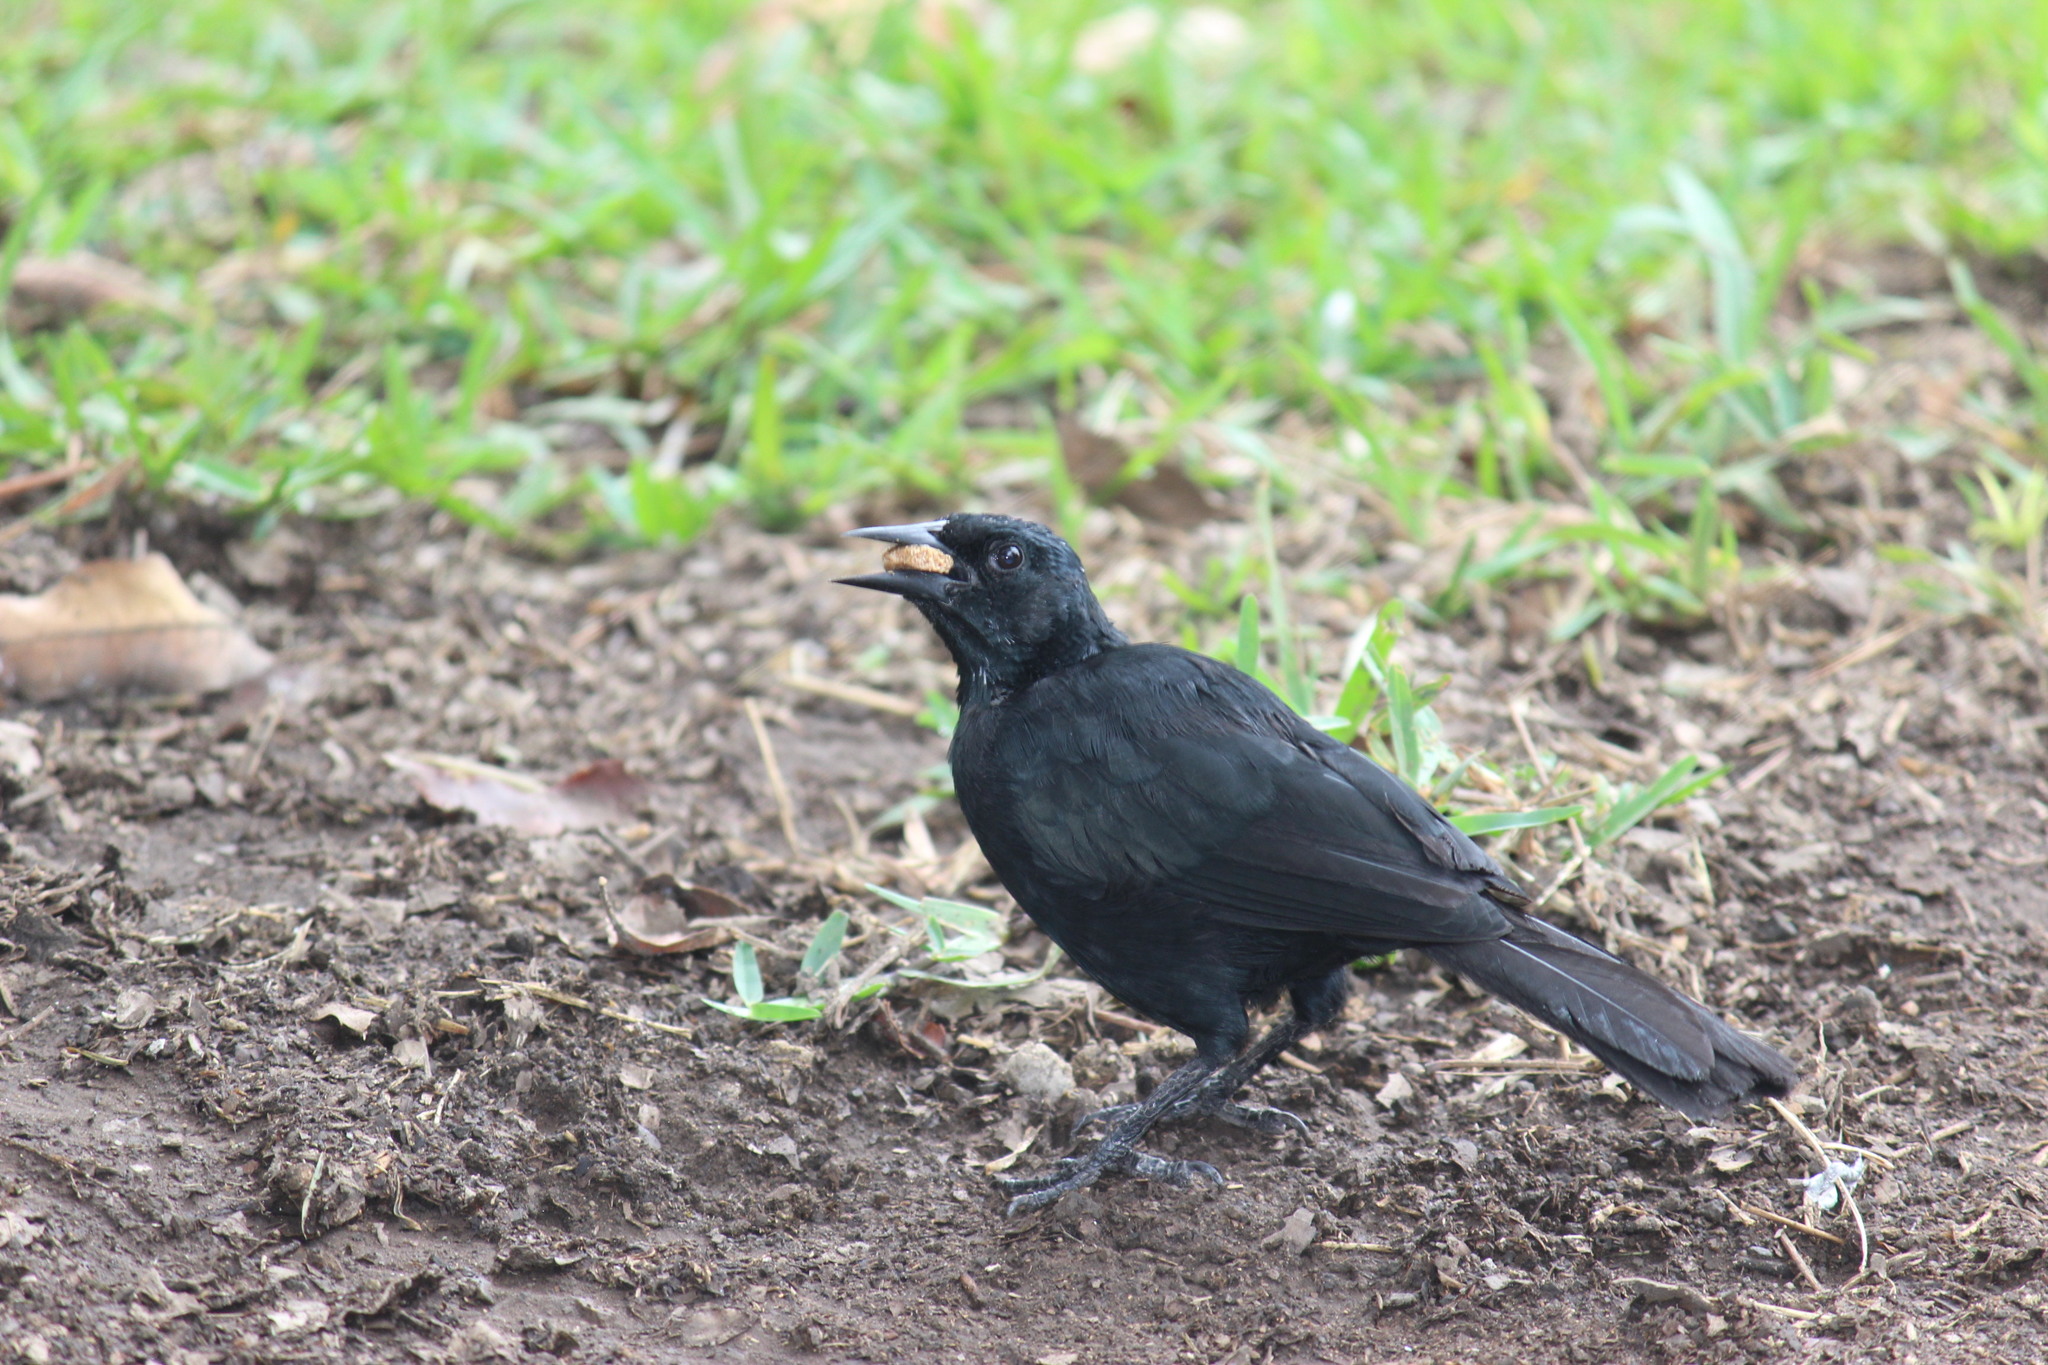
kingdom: Animalia
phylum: Chordata
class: Aves
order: Passeriformes
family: Icteridae
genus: Dives
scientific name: Dives warczewiczi
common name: Scrub blackbird
